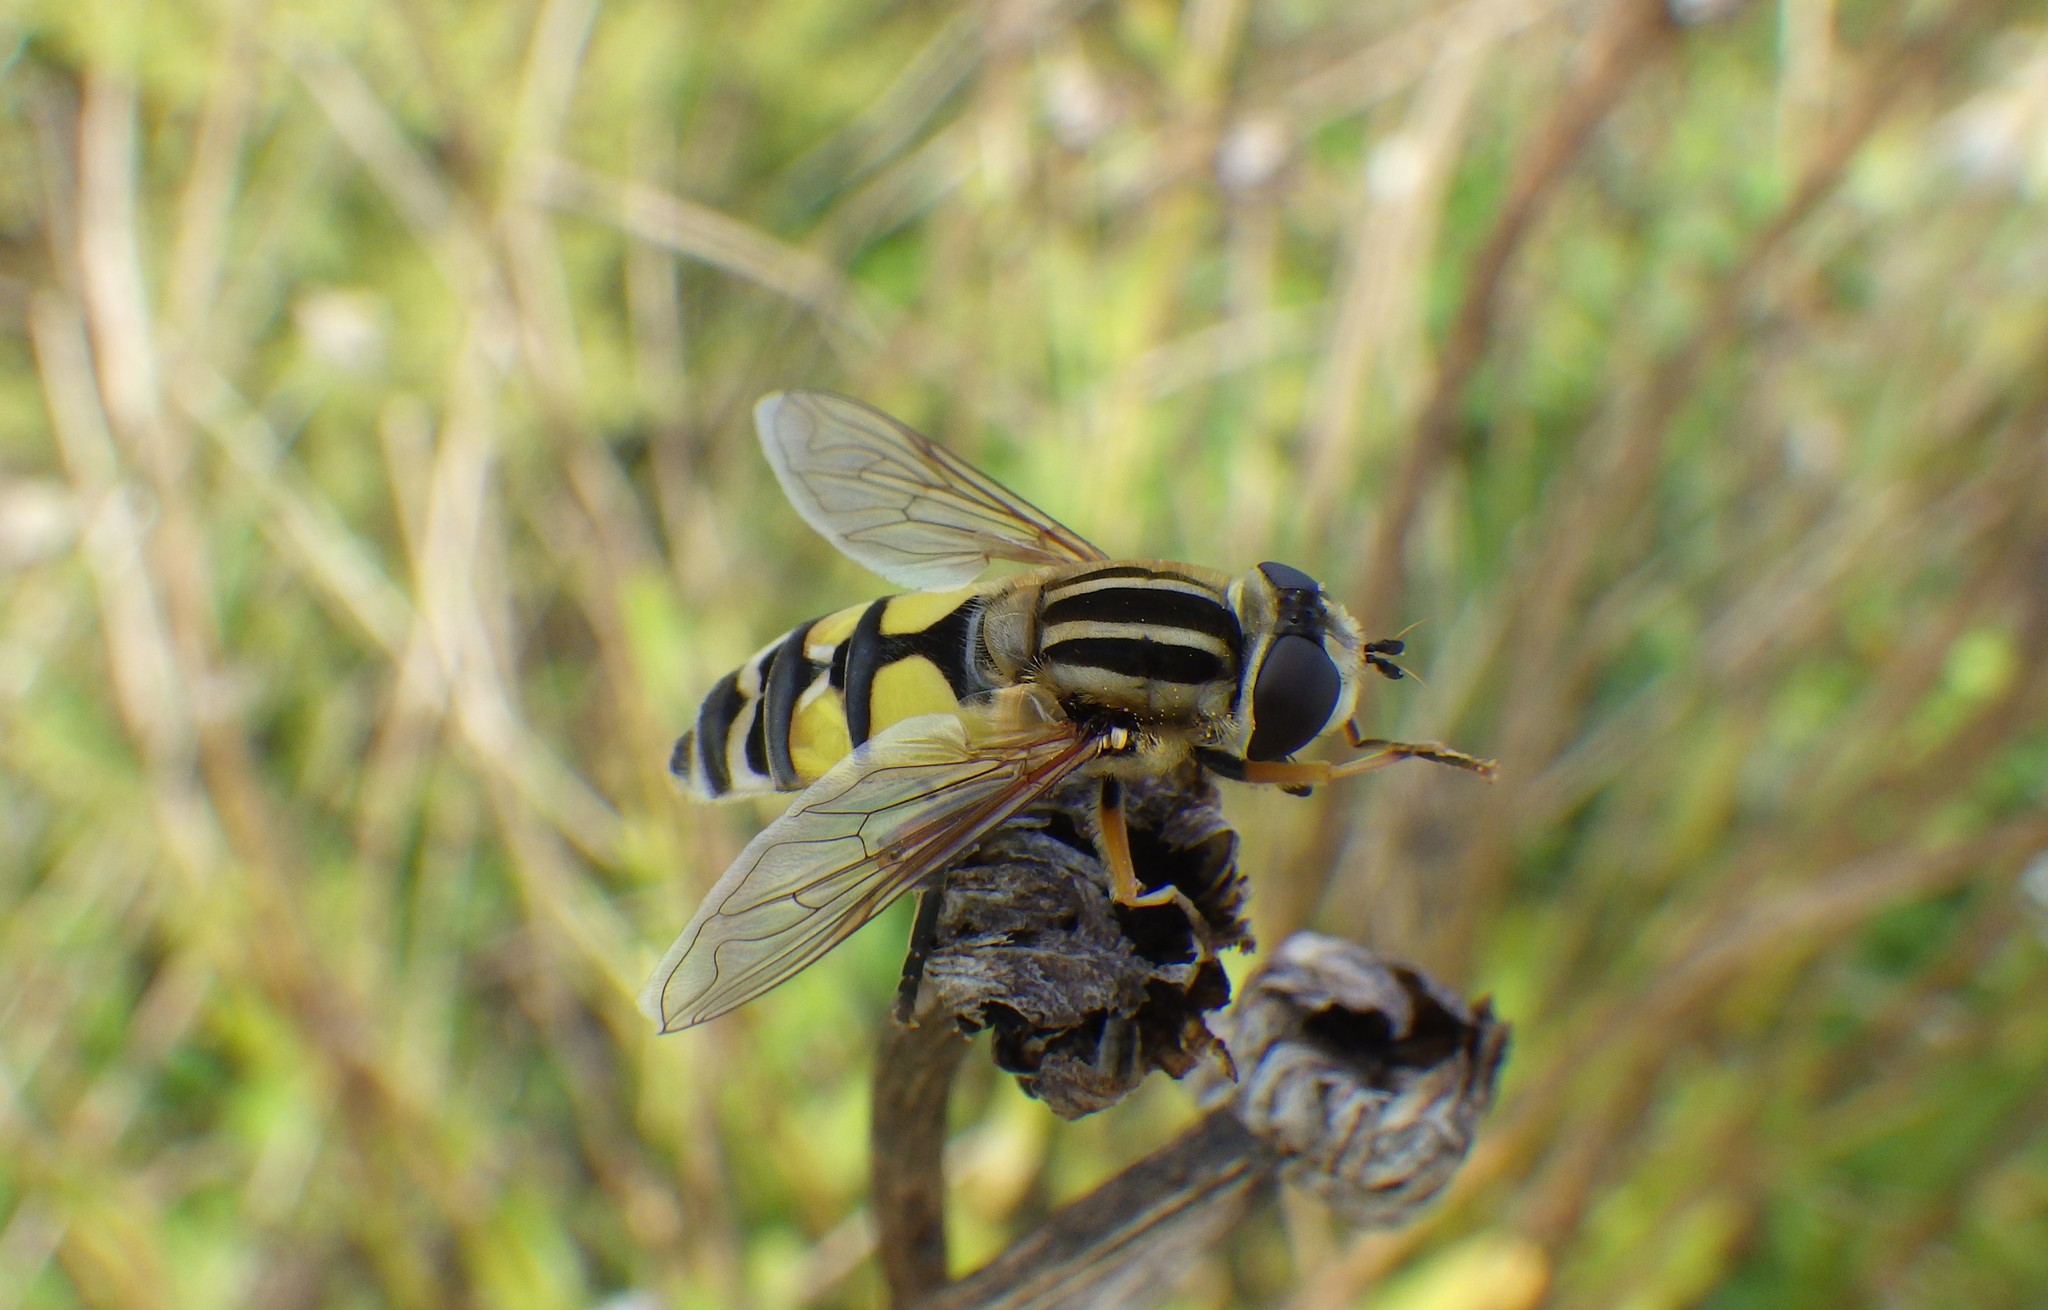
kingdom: Animalia
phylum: Arthropoda
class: Insecta
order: Diptera
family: Syrphidae
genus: Helophilus
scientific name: Helophilus trivittatus
